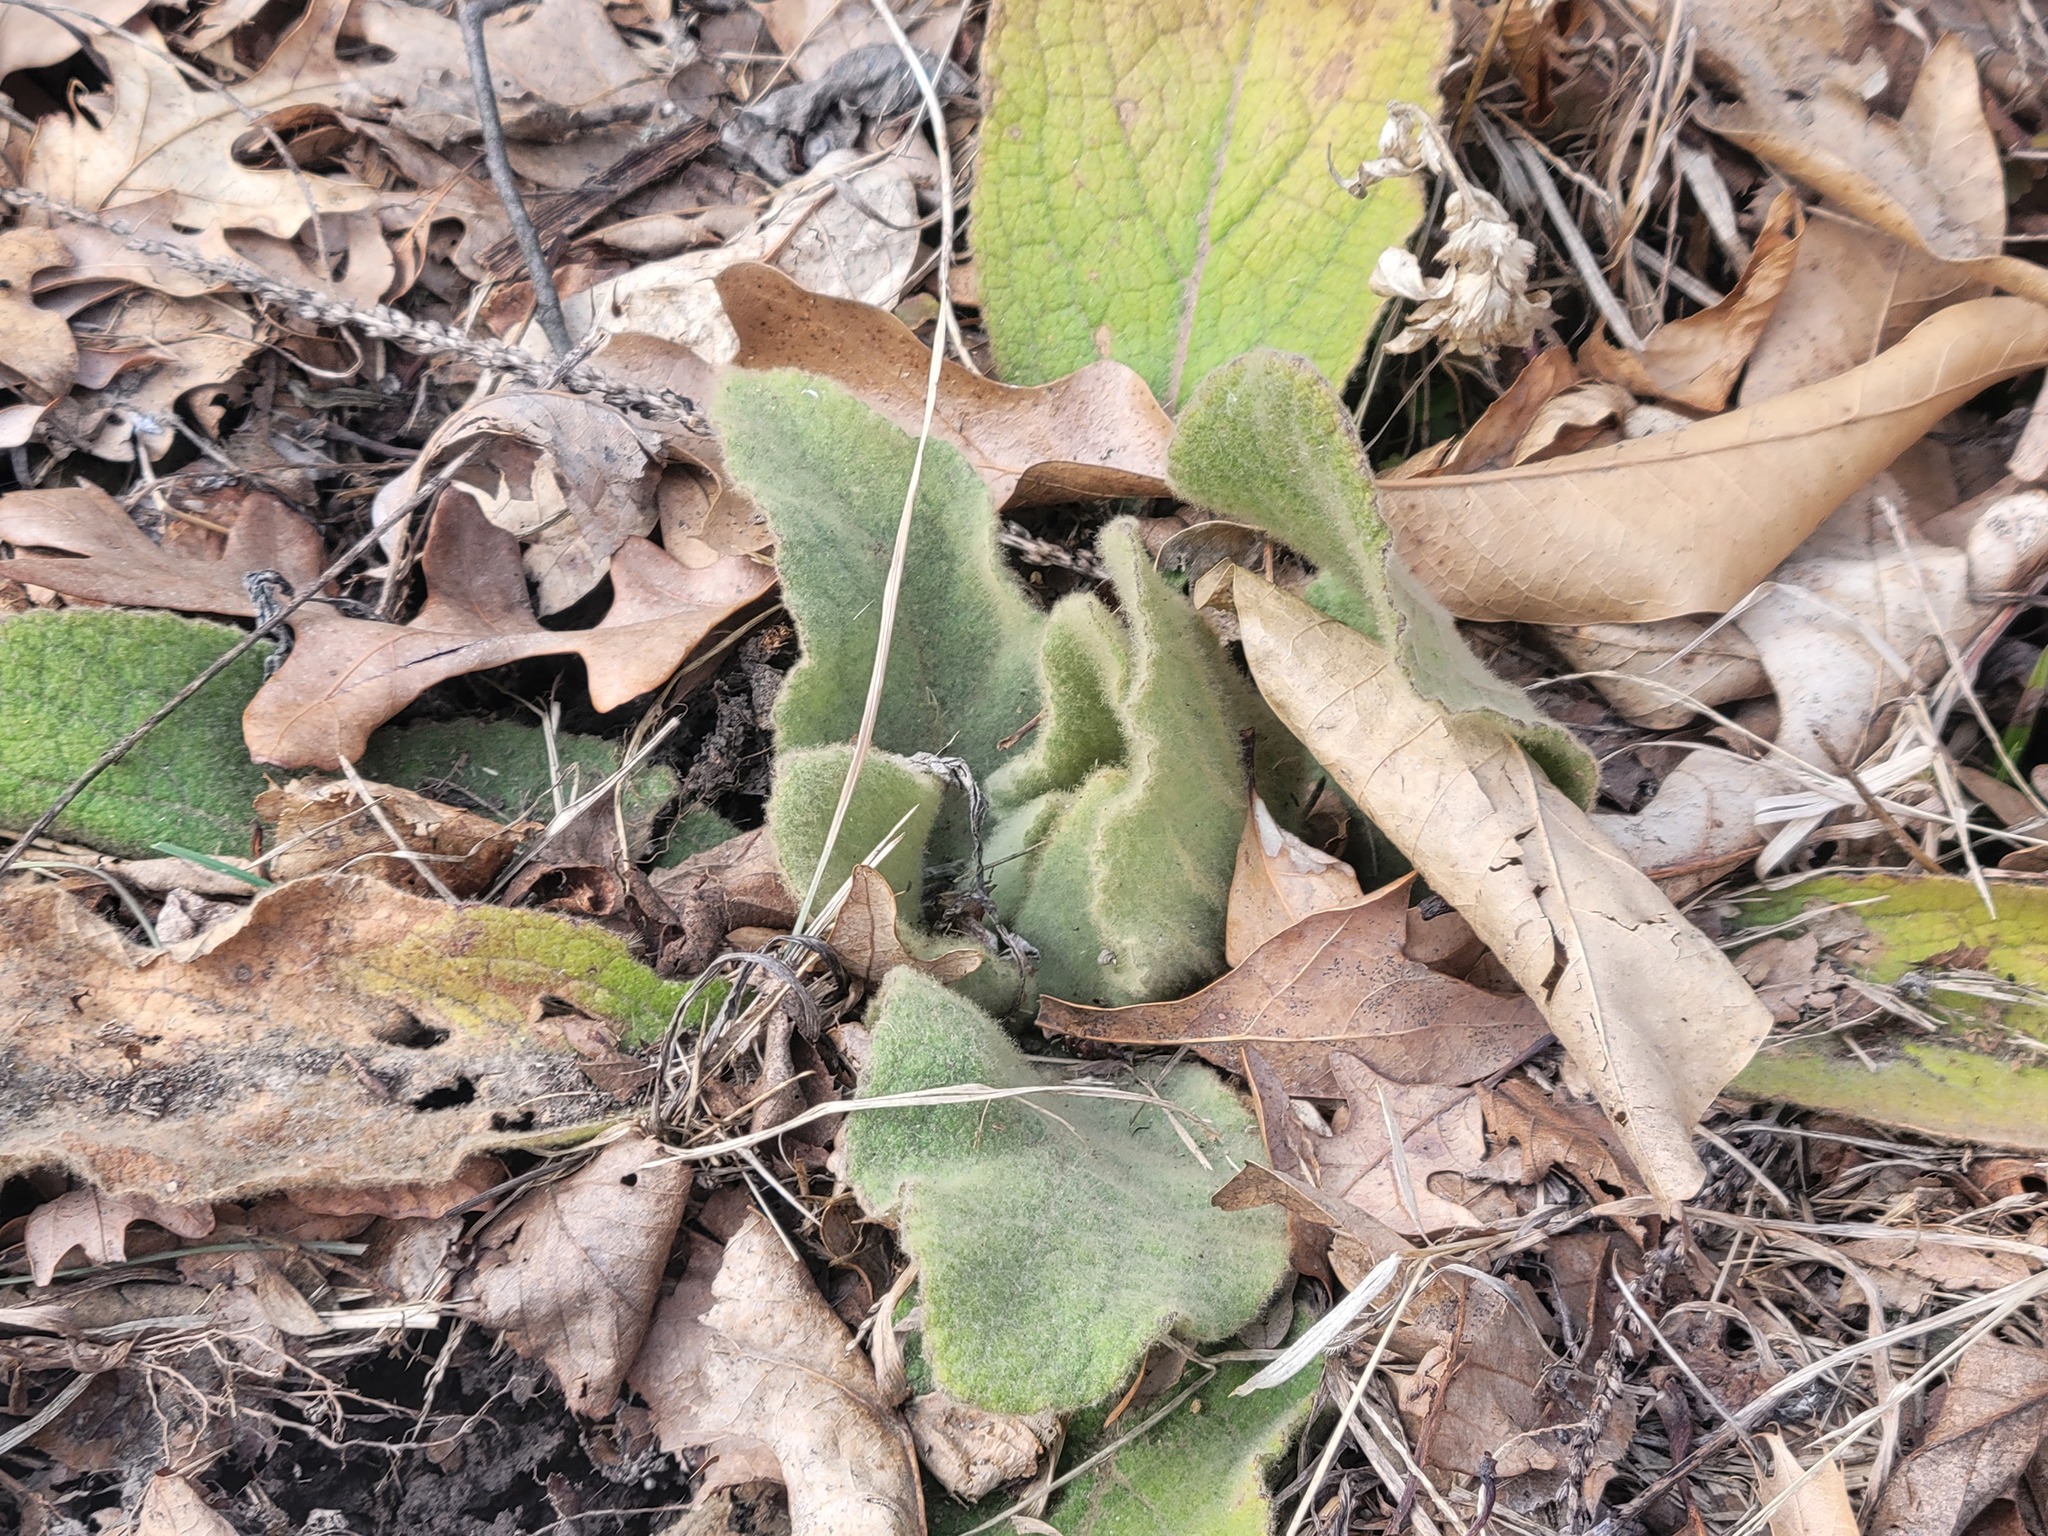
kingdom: Plantae
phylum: Tracheophyta
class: Magnoliopsida
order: Lamiales
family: Scrophulariaceae
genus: Verbascum
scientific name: Verbascum thapsus
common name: Common mullein
